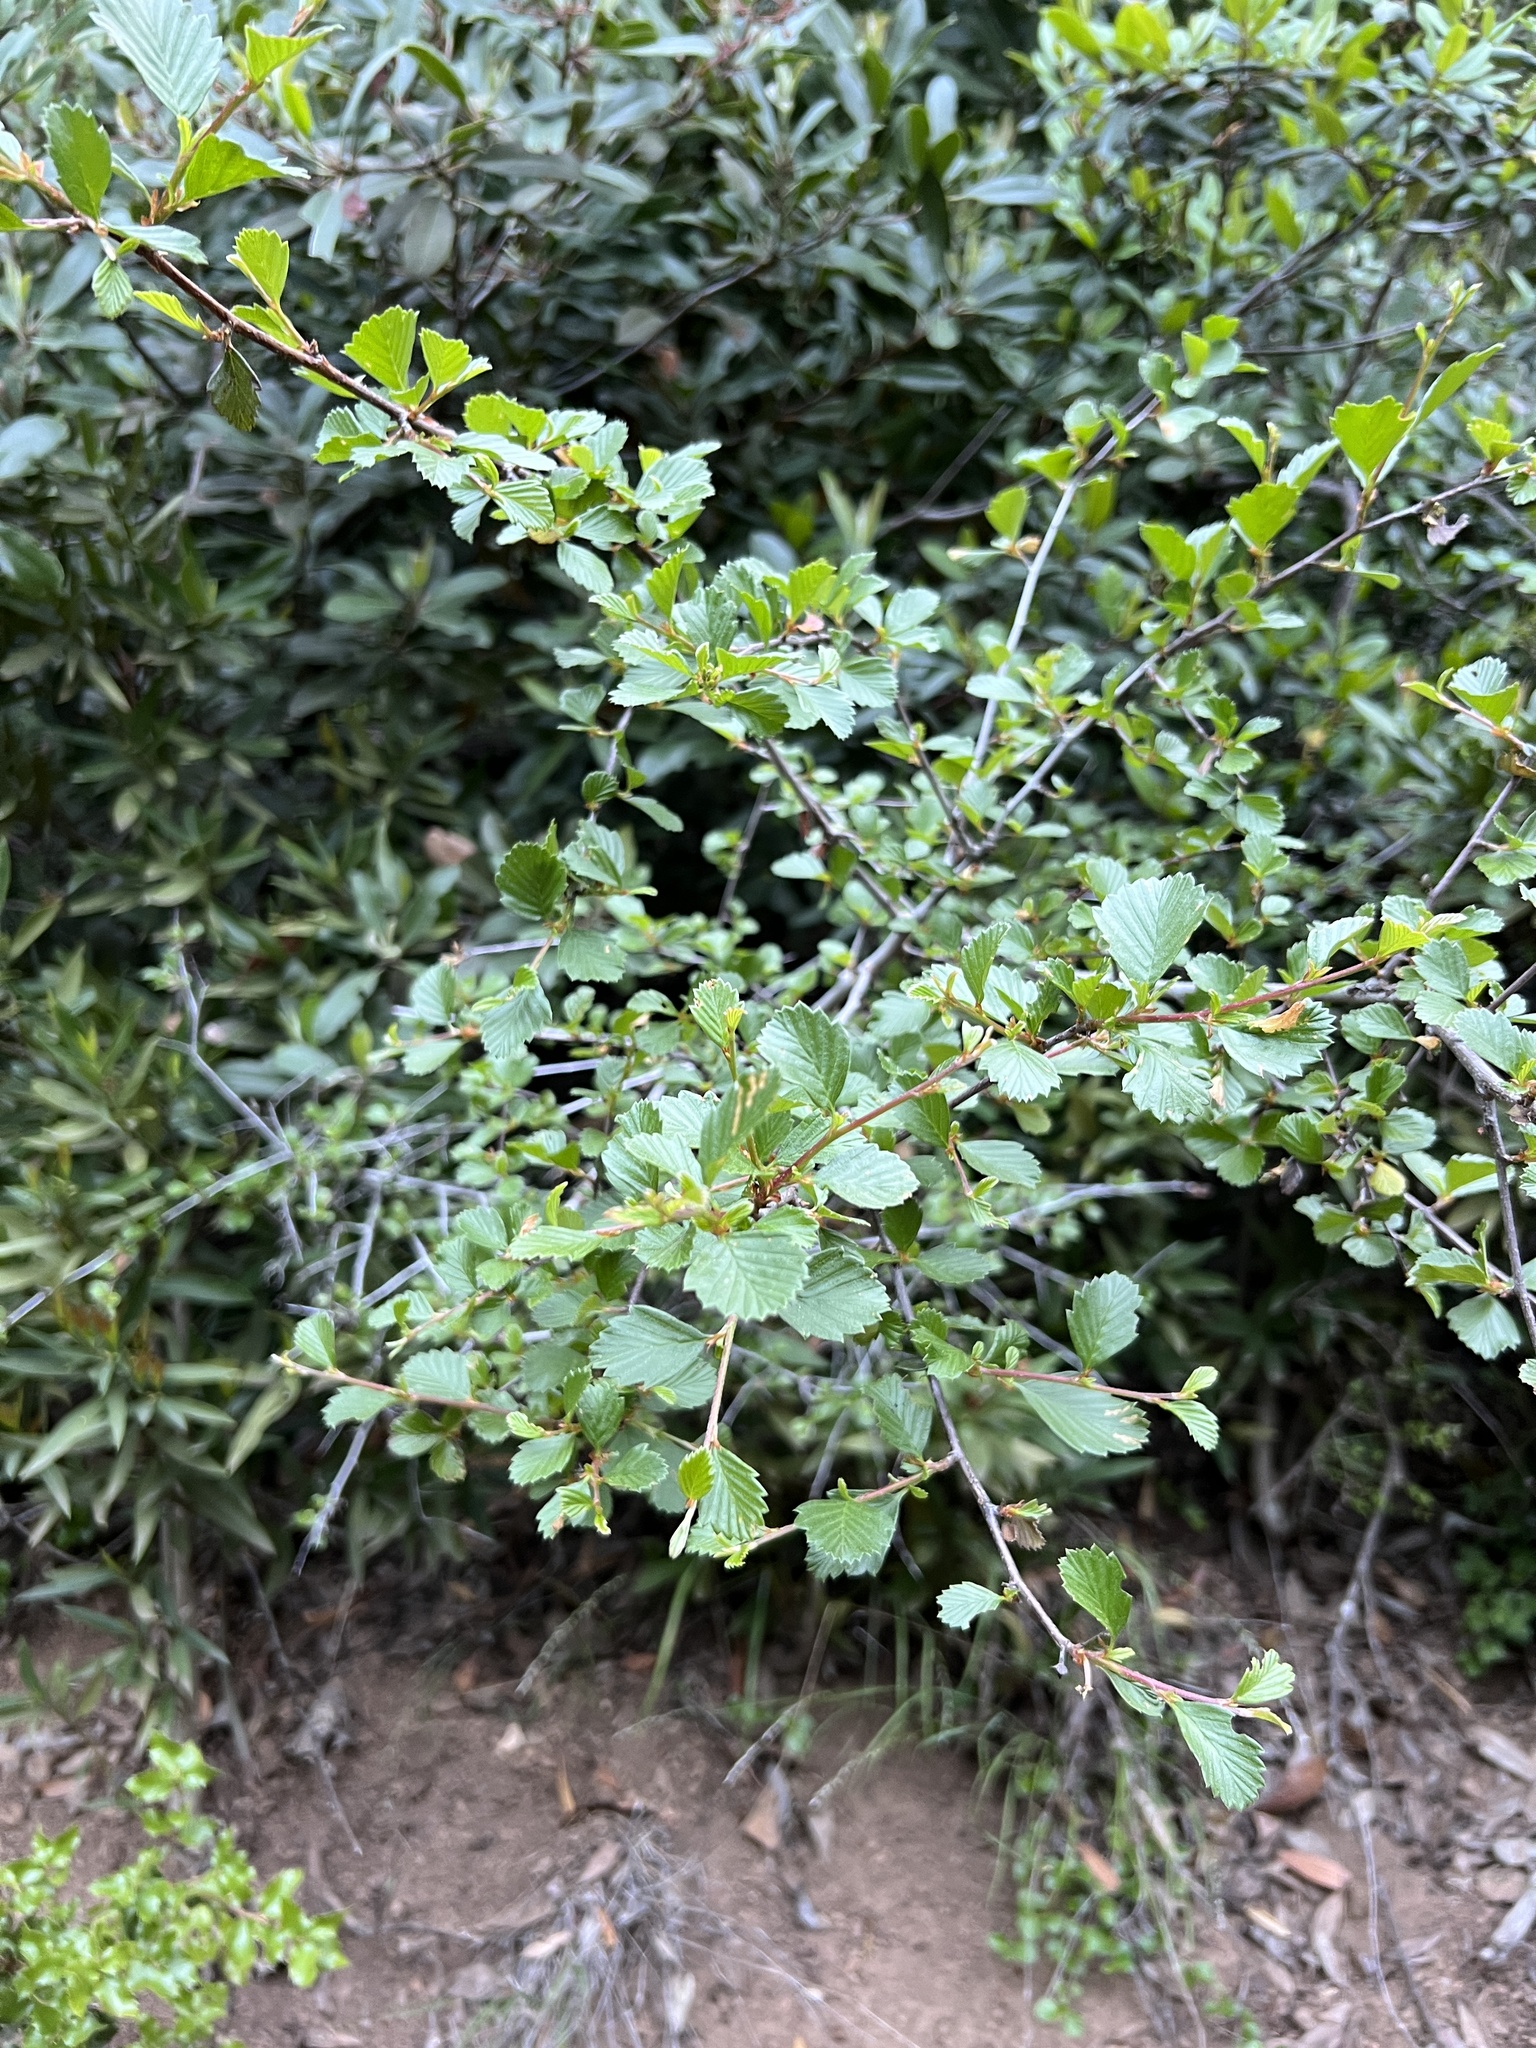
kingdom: Plantae
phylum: Tracheophyta
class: Magnoliopsida
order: Rosales
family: Rosaceae
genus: Cercocarpus
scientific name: Cercocarpus betuloides
